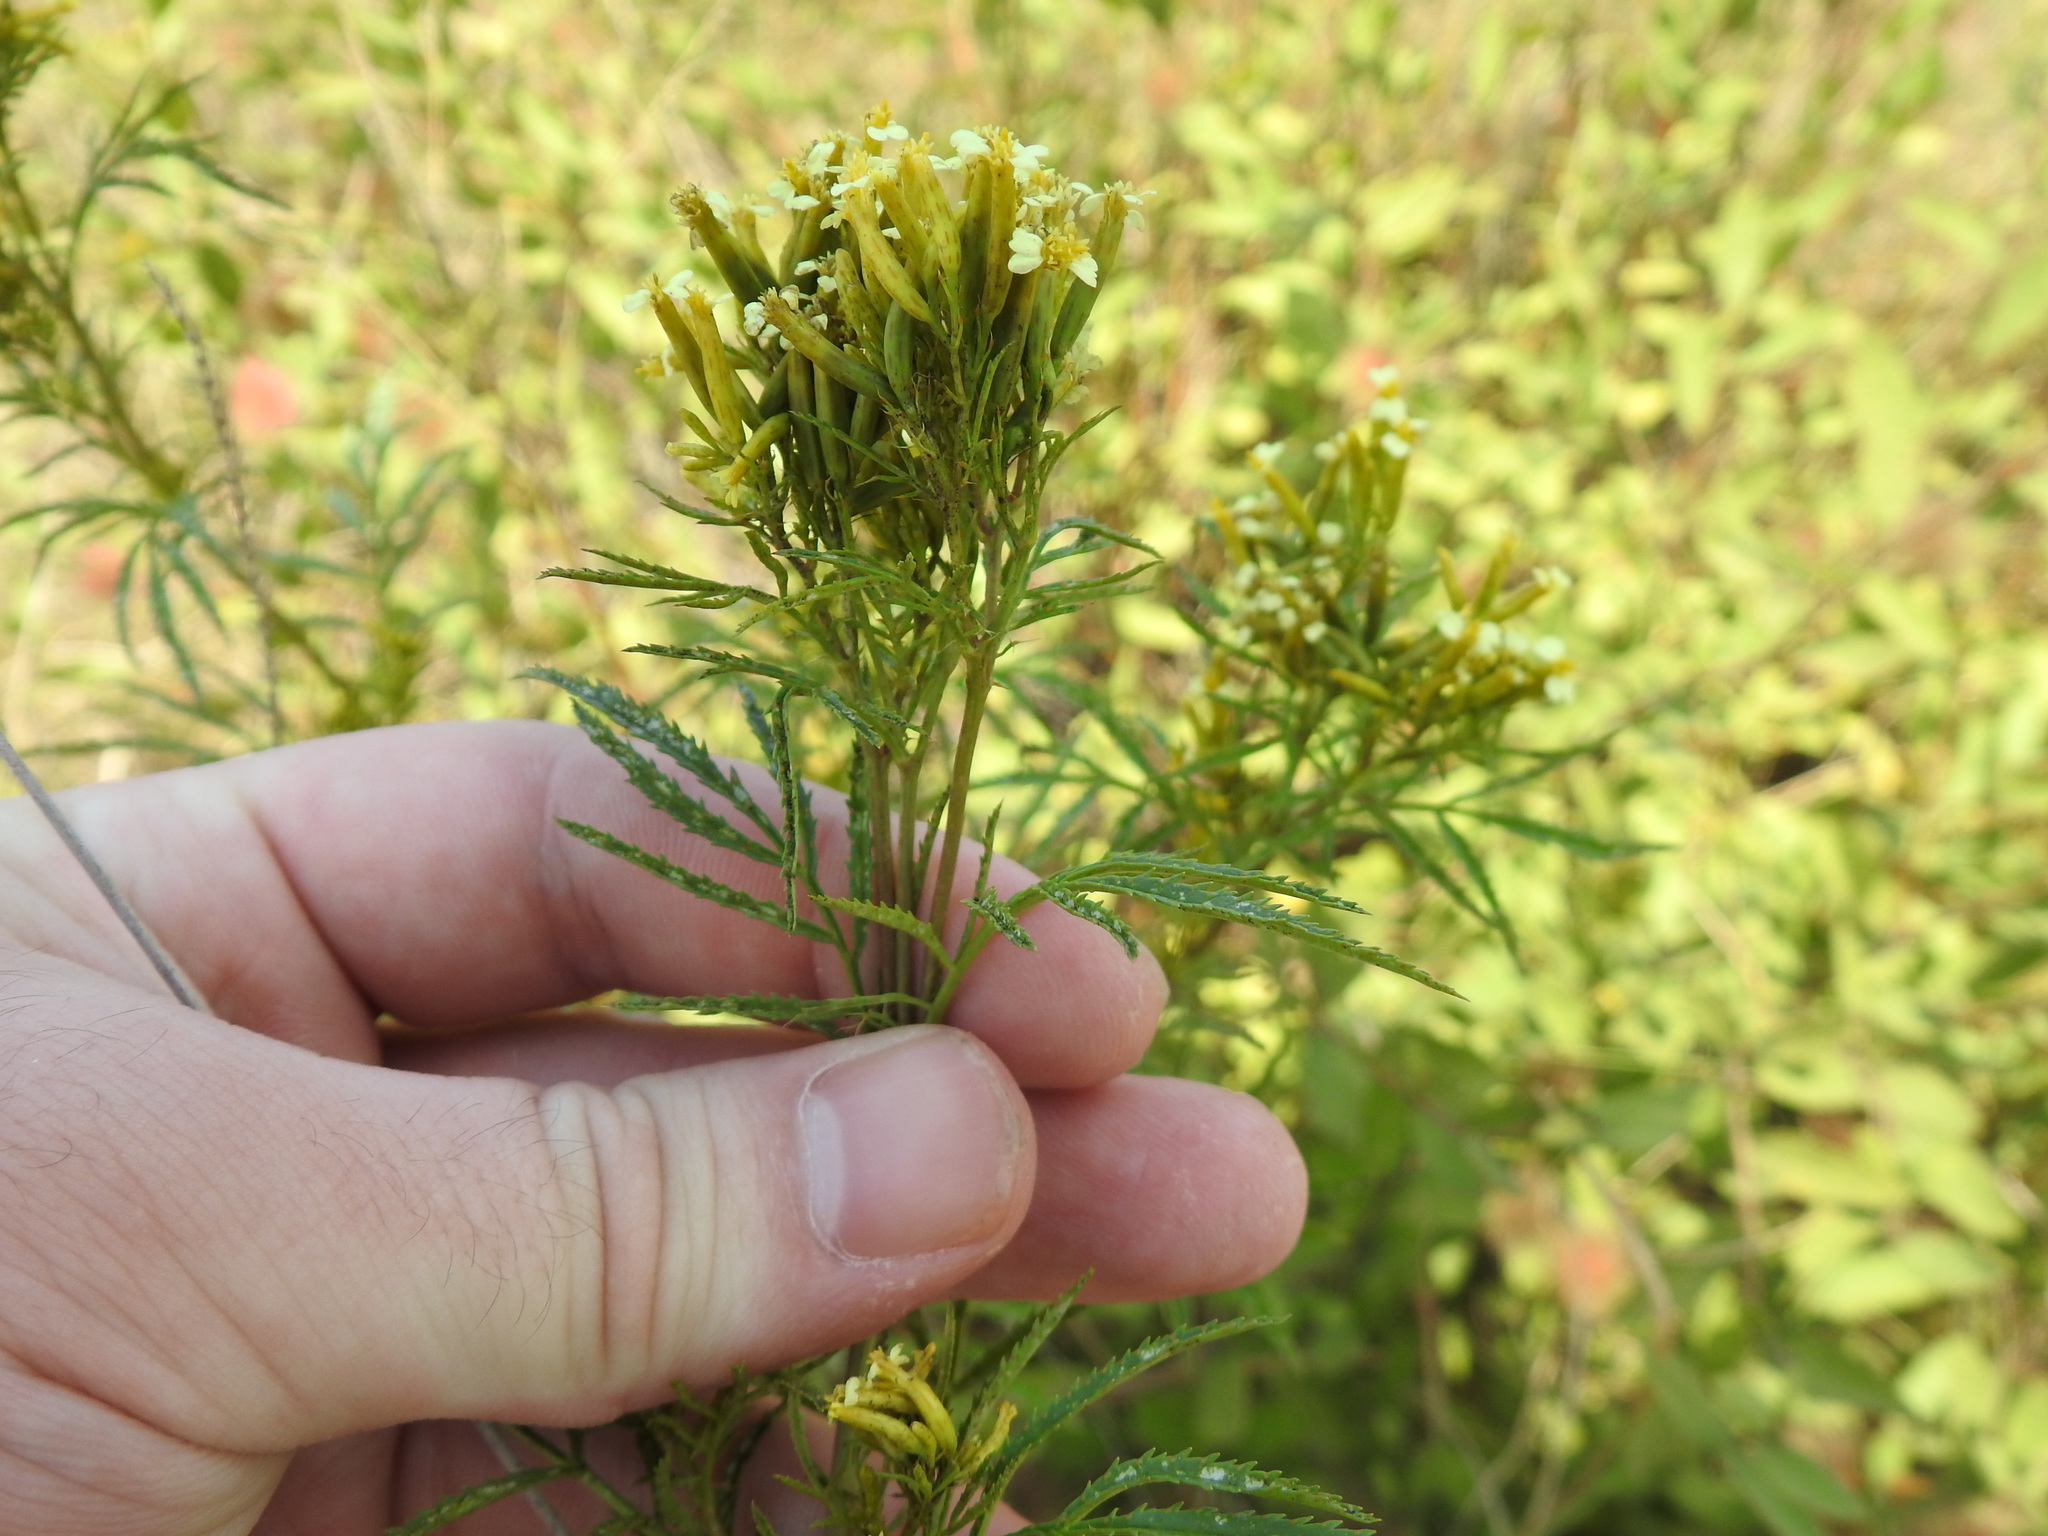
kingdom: Plantae
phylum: Tracheophyta
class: Magnoliopsida
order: Asterales
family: Asteraceae
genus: Tagetes
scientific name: Tagetes minuta
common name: Muster john henry
